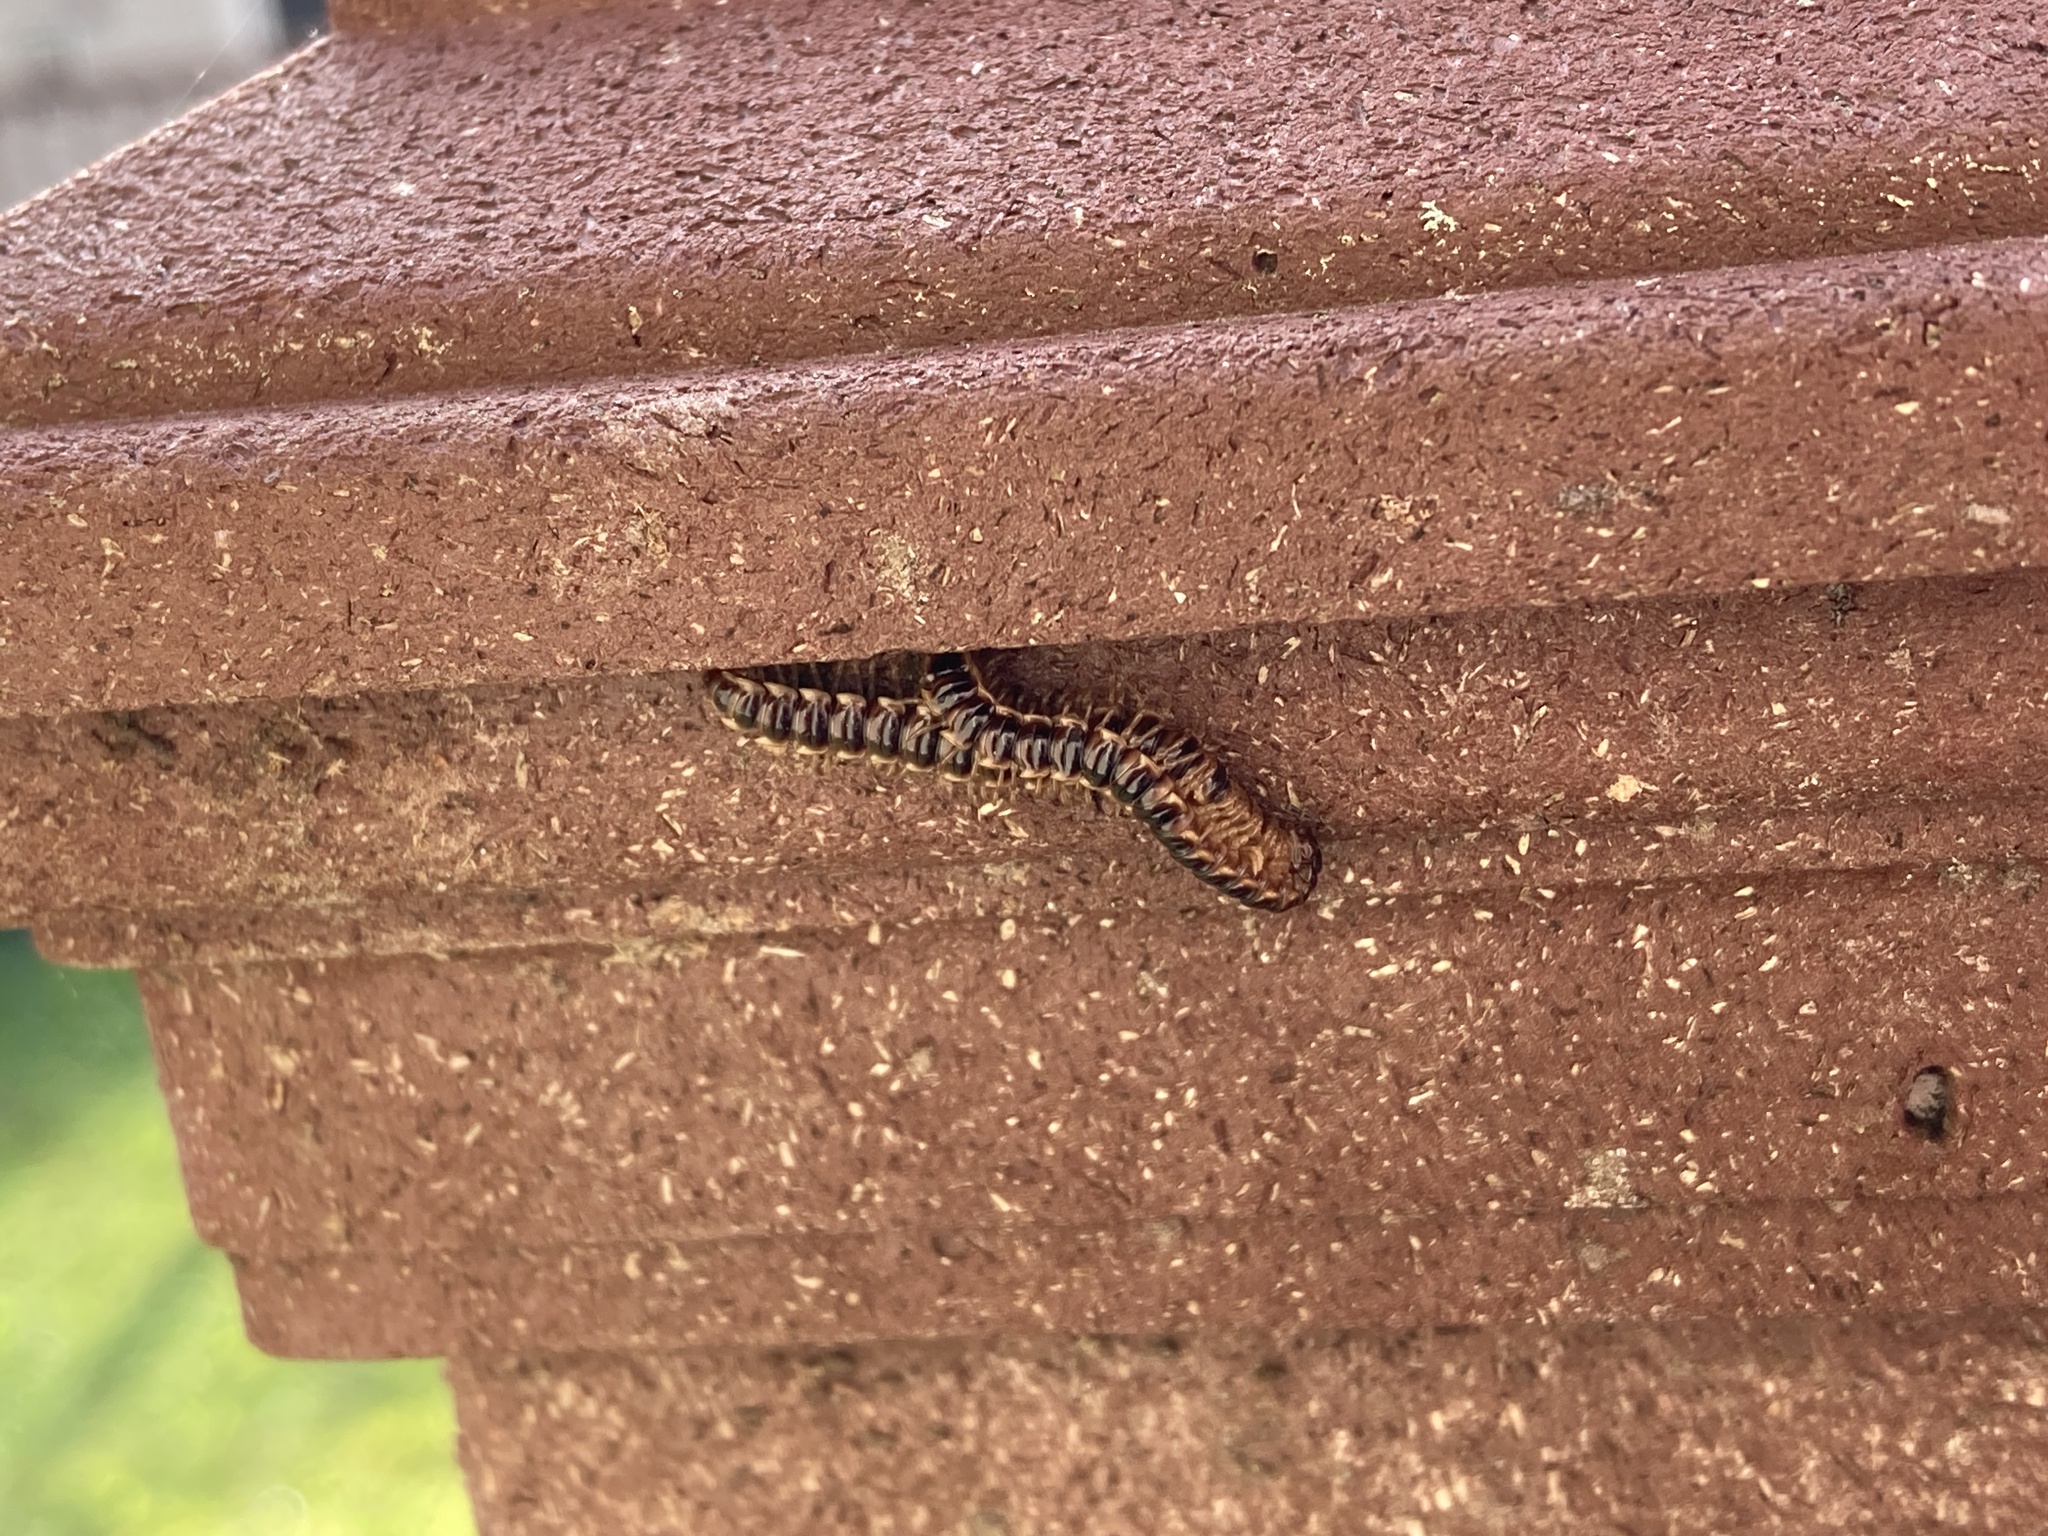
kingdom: Animalia
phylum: Arthropoda
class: Diplopoda
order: Polydesmida
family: Paradoxosomatidae
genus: Oxidus
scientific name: Oxidus gracilis
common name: Greenhouse millipede
